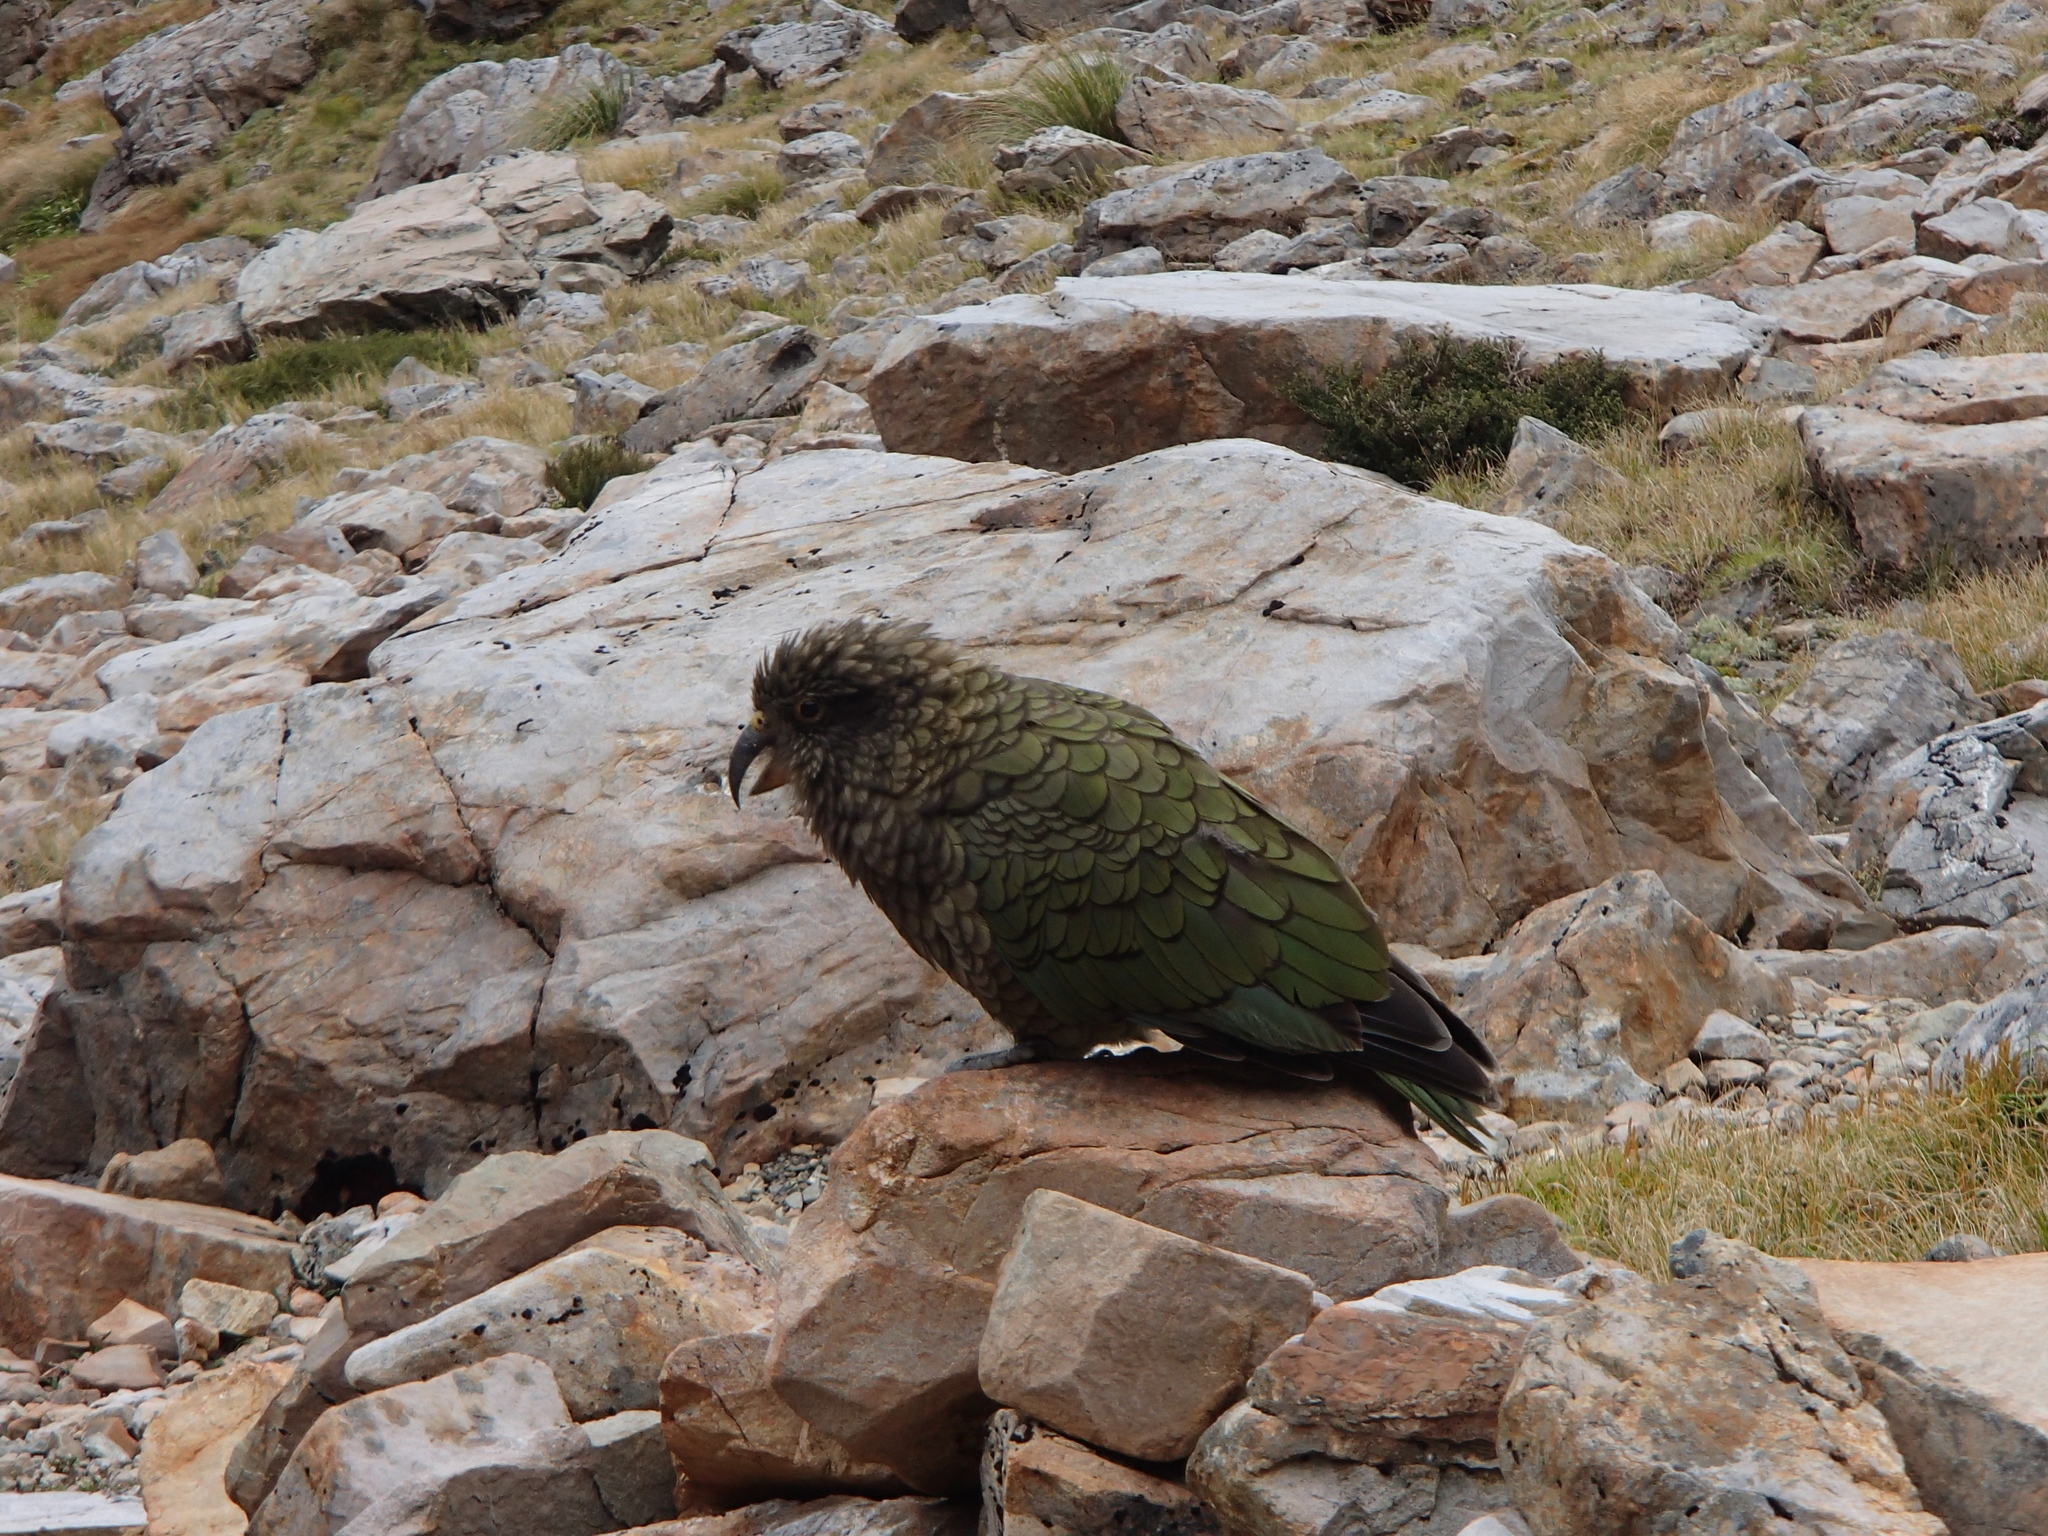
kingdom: Animalia
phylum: Chordata
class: Aves
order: Psittaciformes
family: Psittacidae
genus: Nestor
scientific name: Nestor notabilis
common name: Kea
